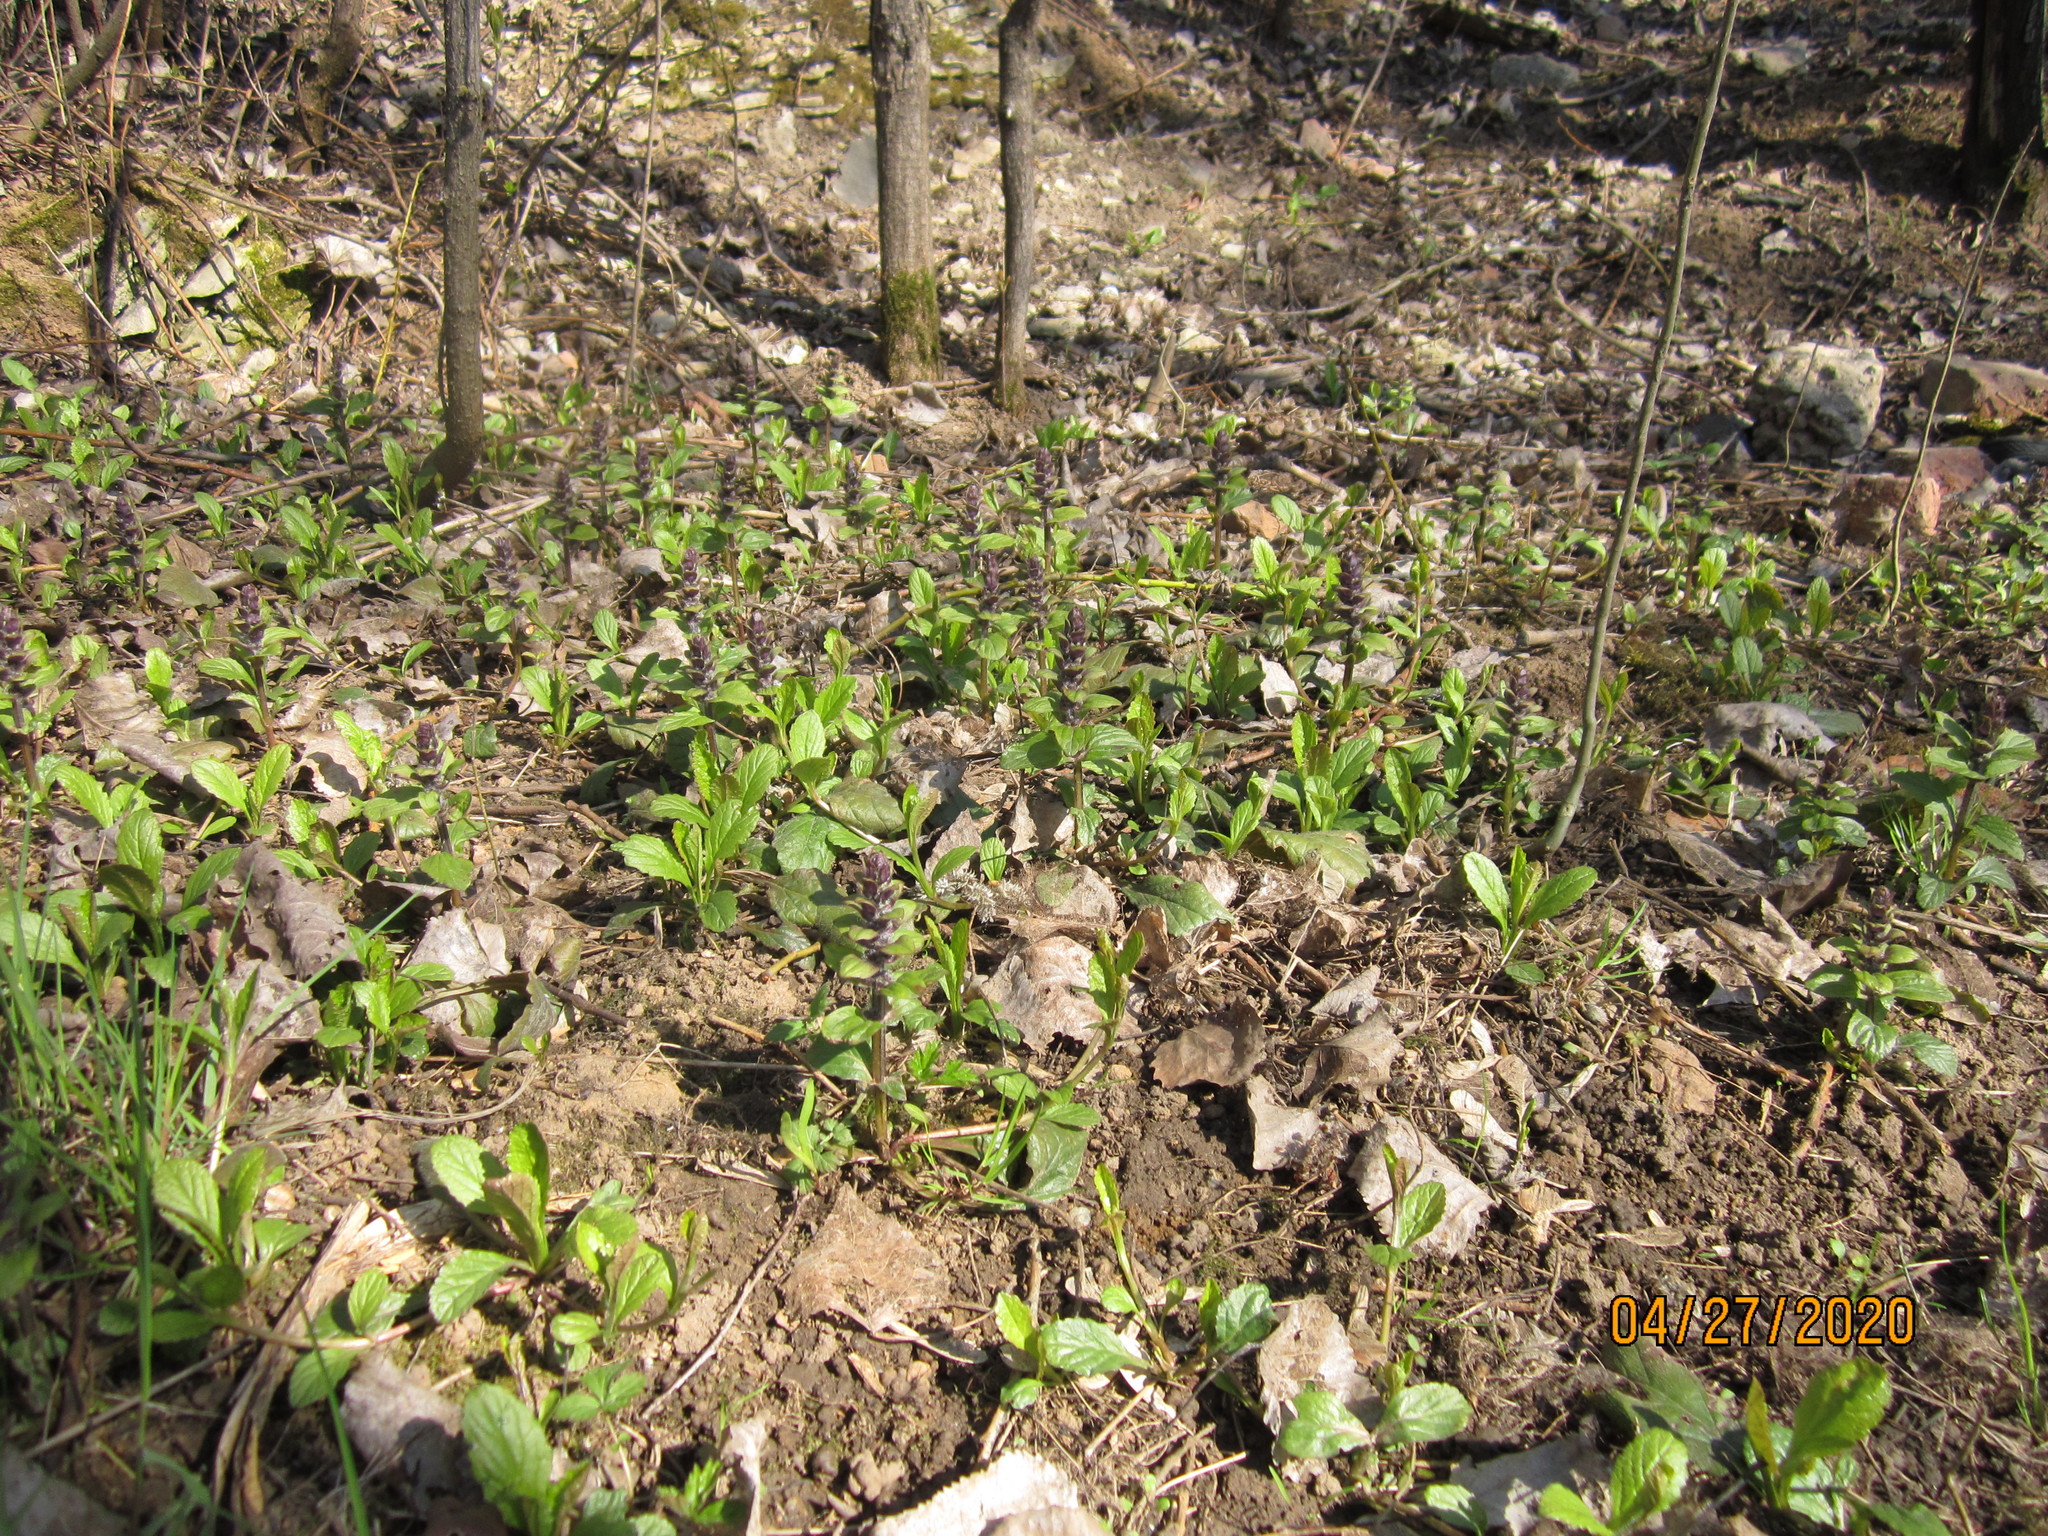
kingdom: Plantae
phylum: Tracheophyta
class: Magnoliopsida
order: Lamiales
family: Lamiaceae
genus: Ajuga
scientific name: Ajuga reptans
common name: Bugle
